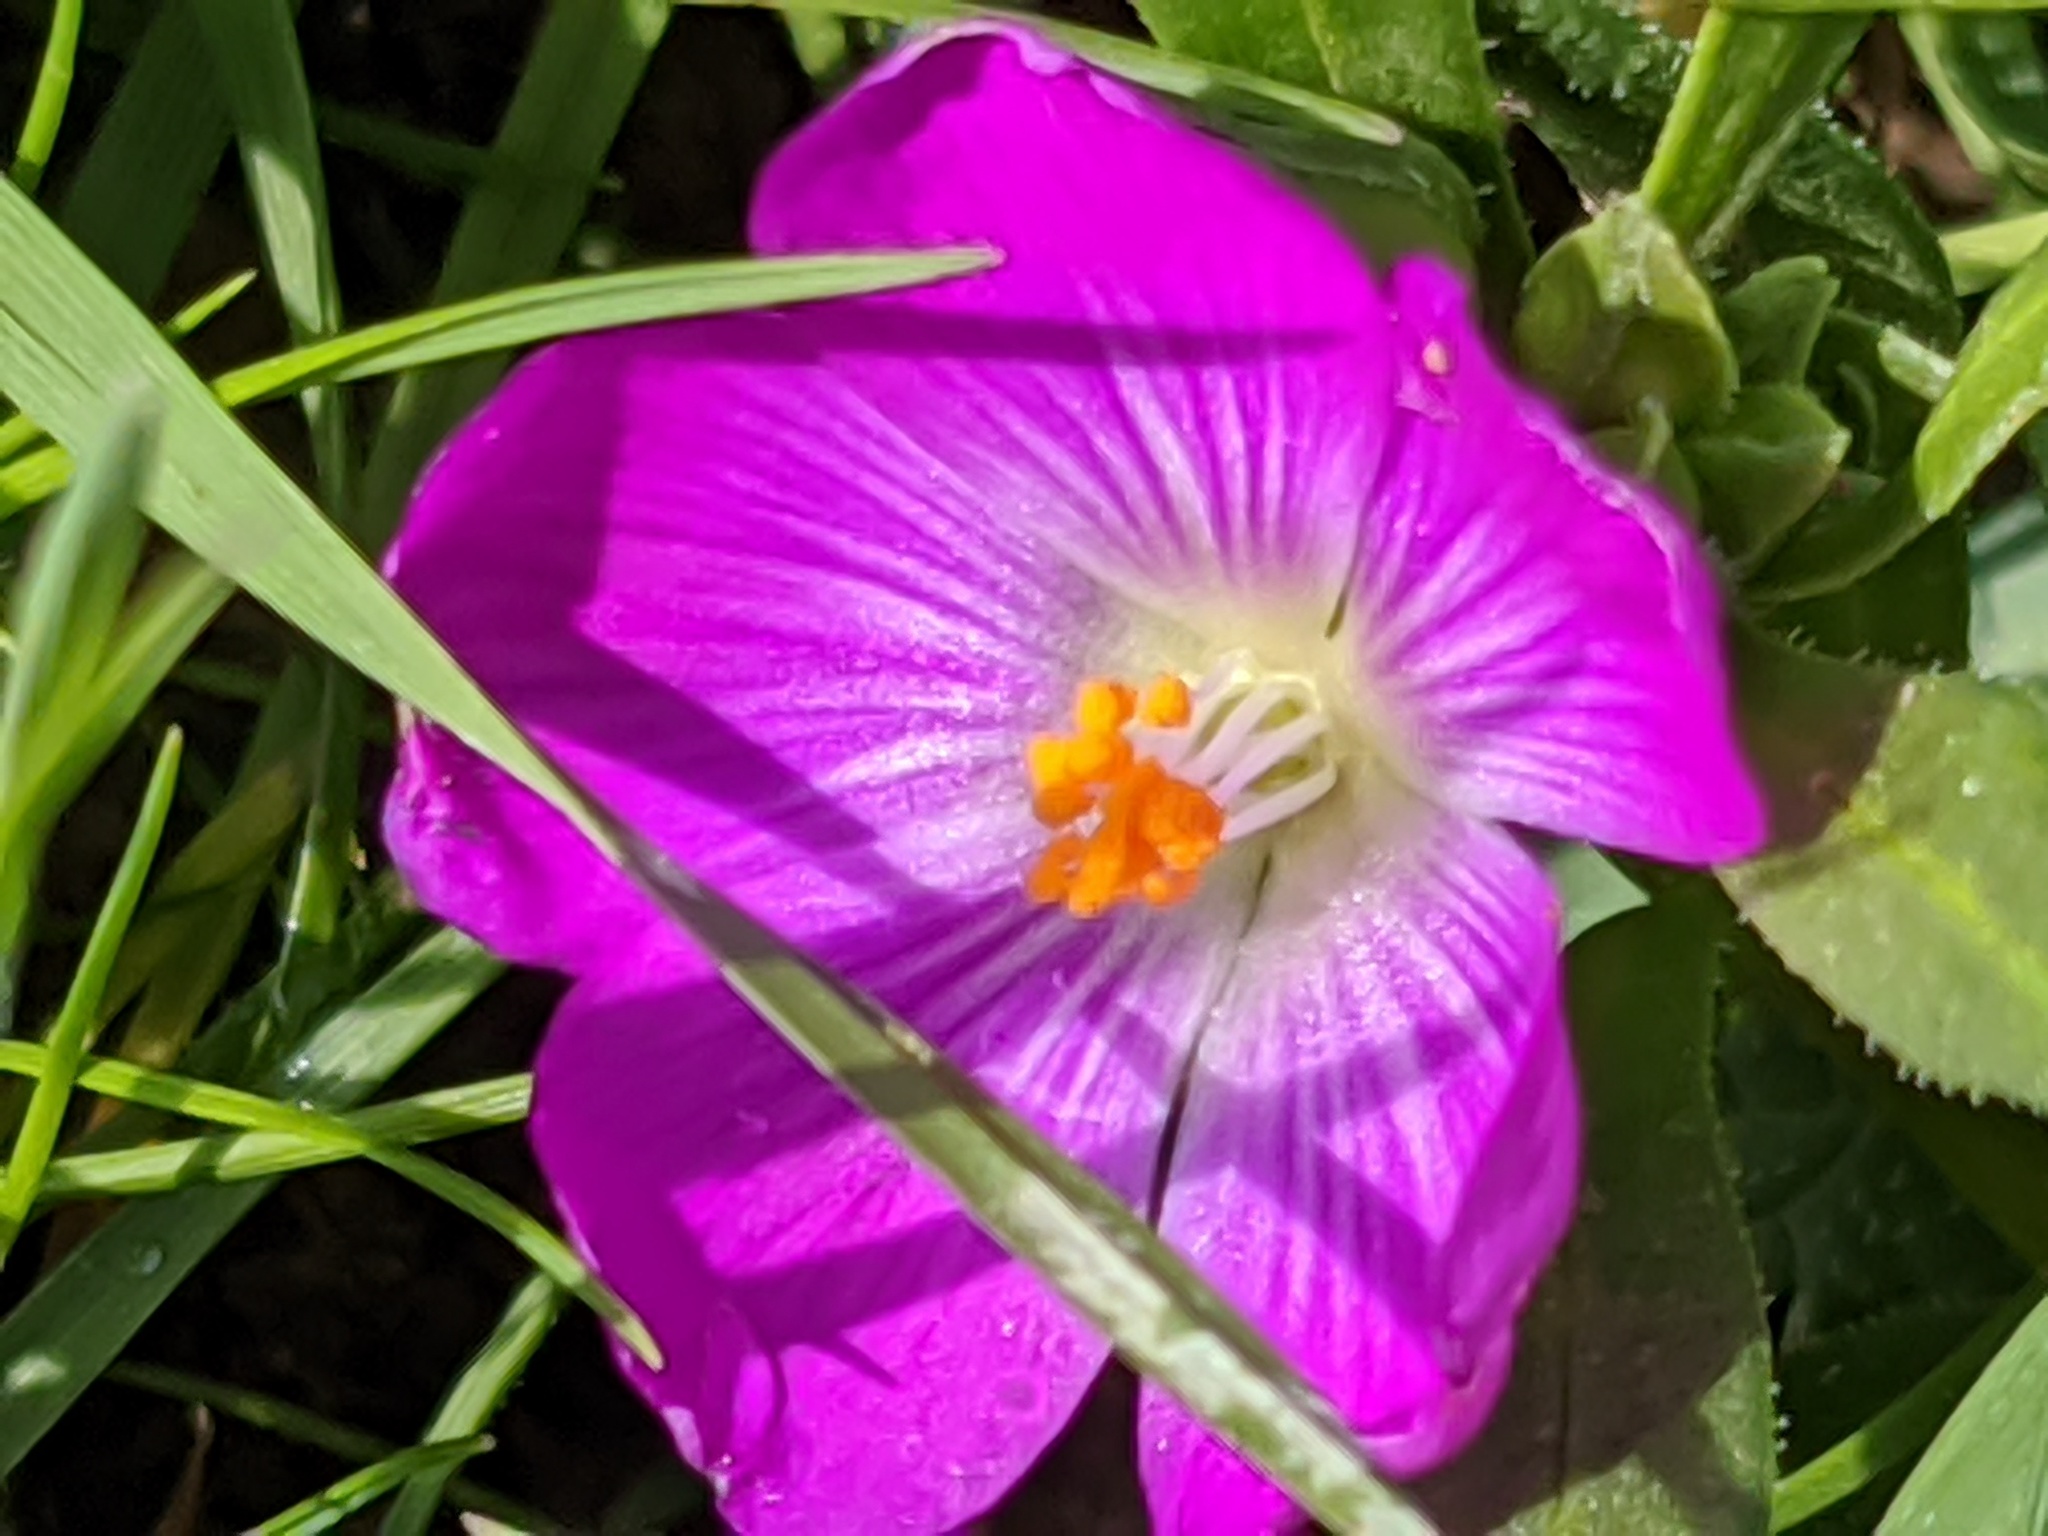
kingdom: Plantae
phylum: Tracheophyta
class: Magnoliopsida
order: Caryophyllales
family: Montiaceae
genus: Calandrinia
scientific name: Calandrinia menziesii
